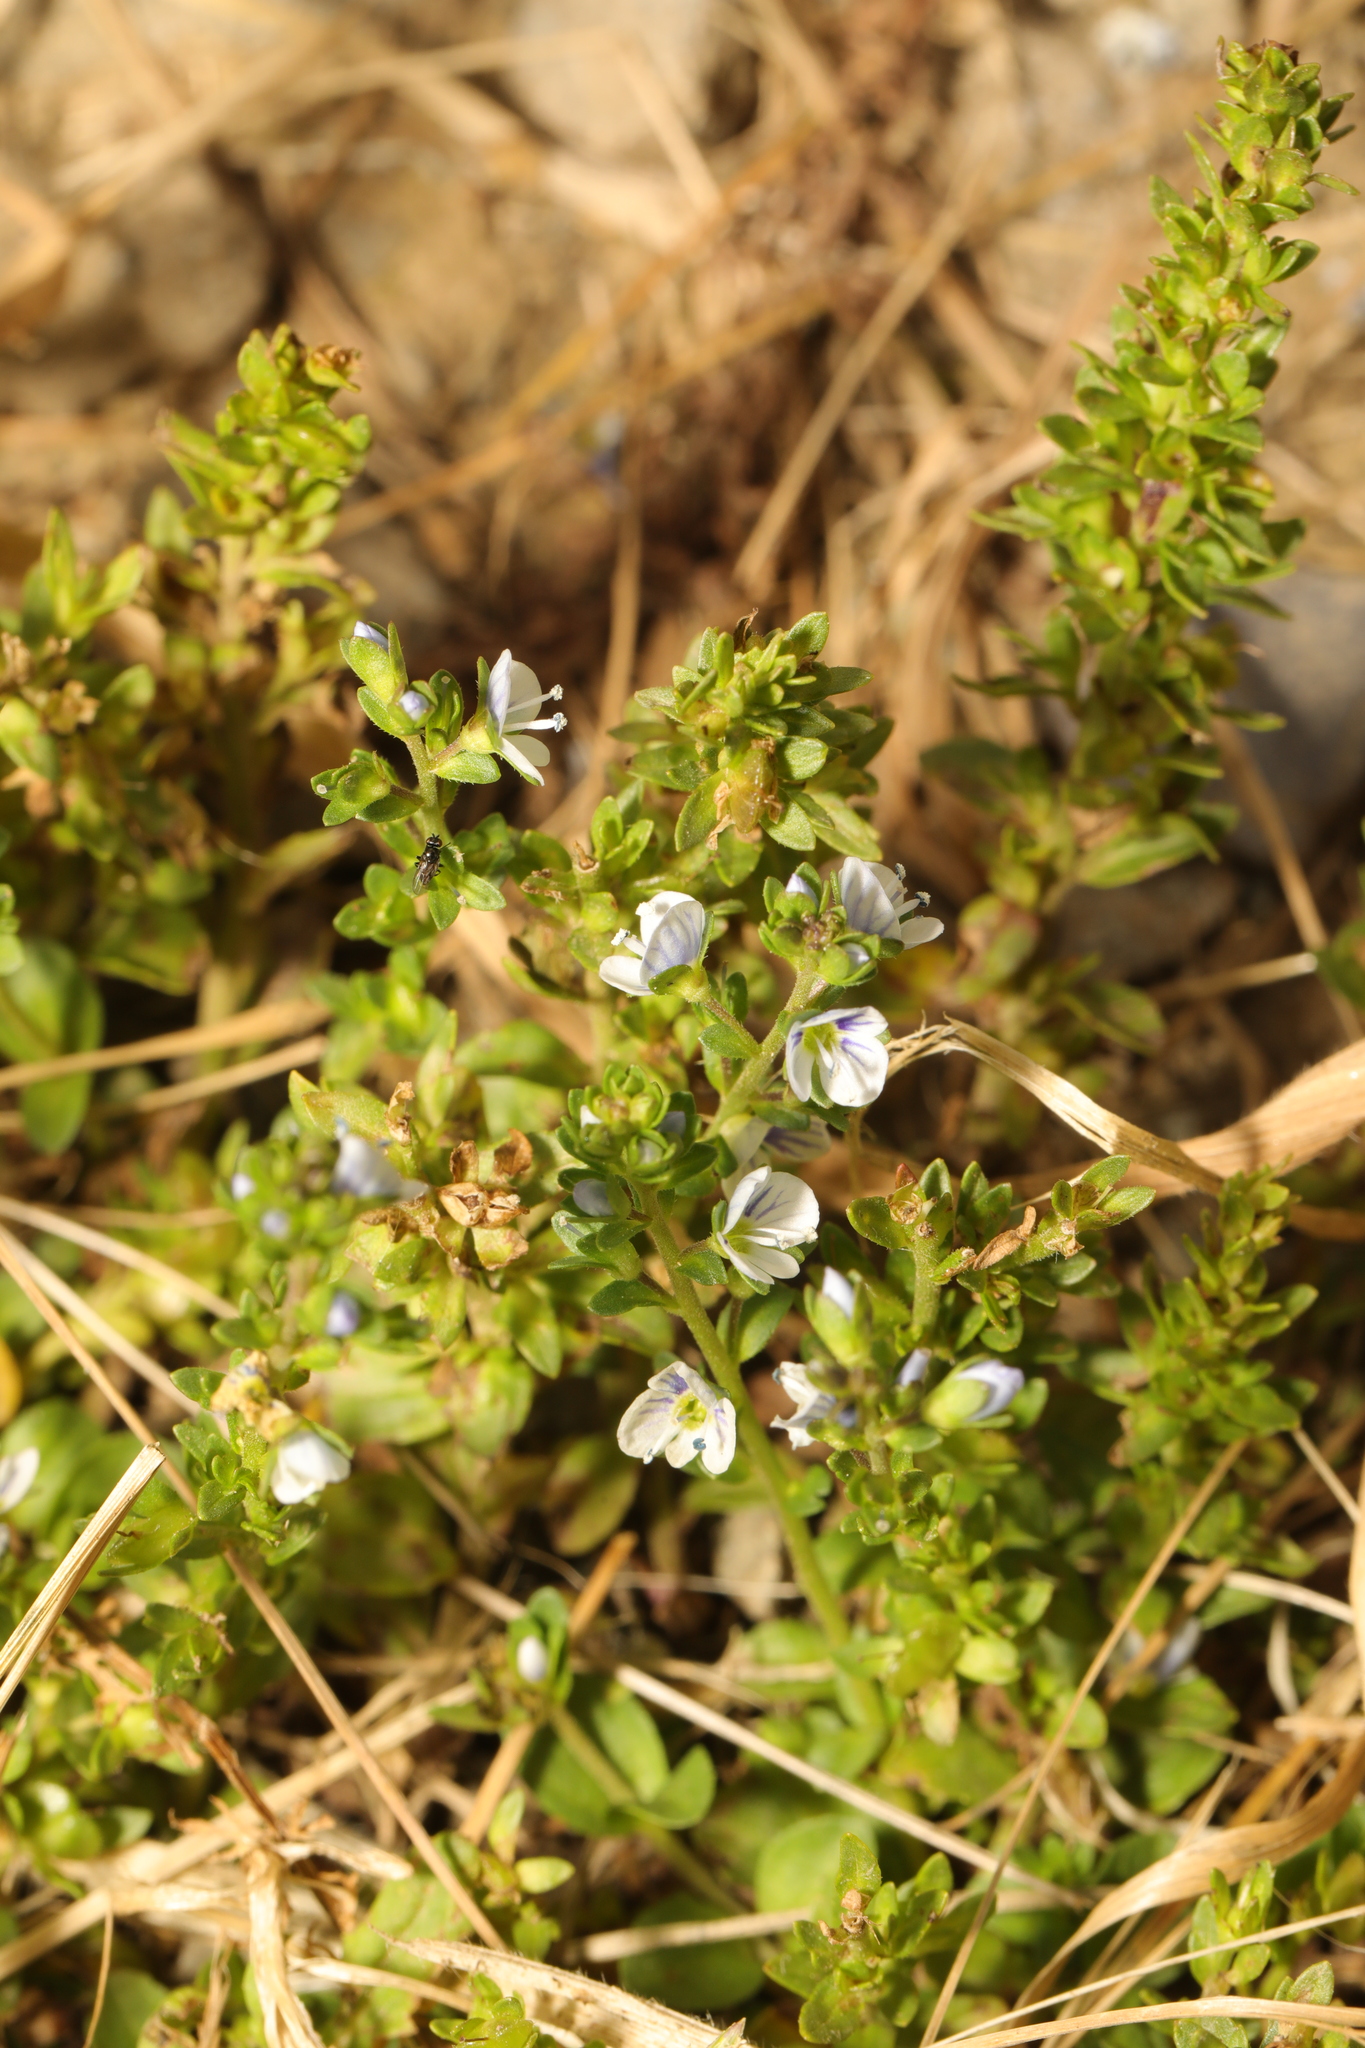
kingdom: Plantae
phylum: Tracheophyta
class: Magnoliopsida
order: Lamiales
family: Plantaginaceae
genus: Veronica
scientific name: Veronica serpyllifolia
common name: Thyme-leaved speedwell
